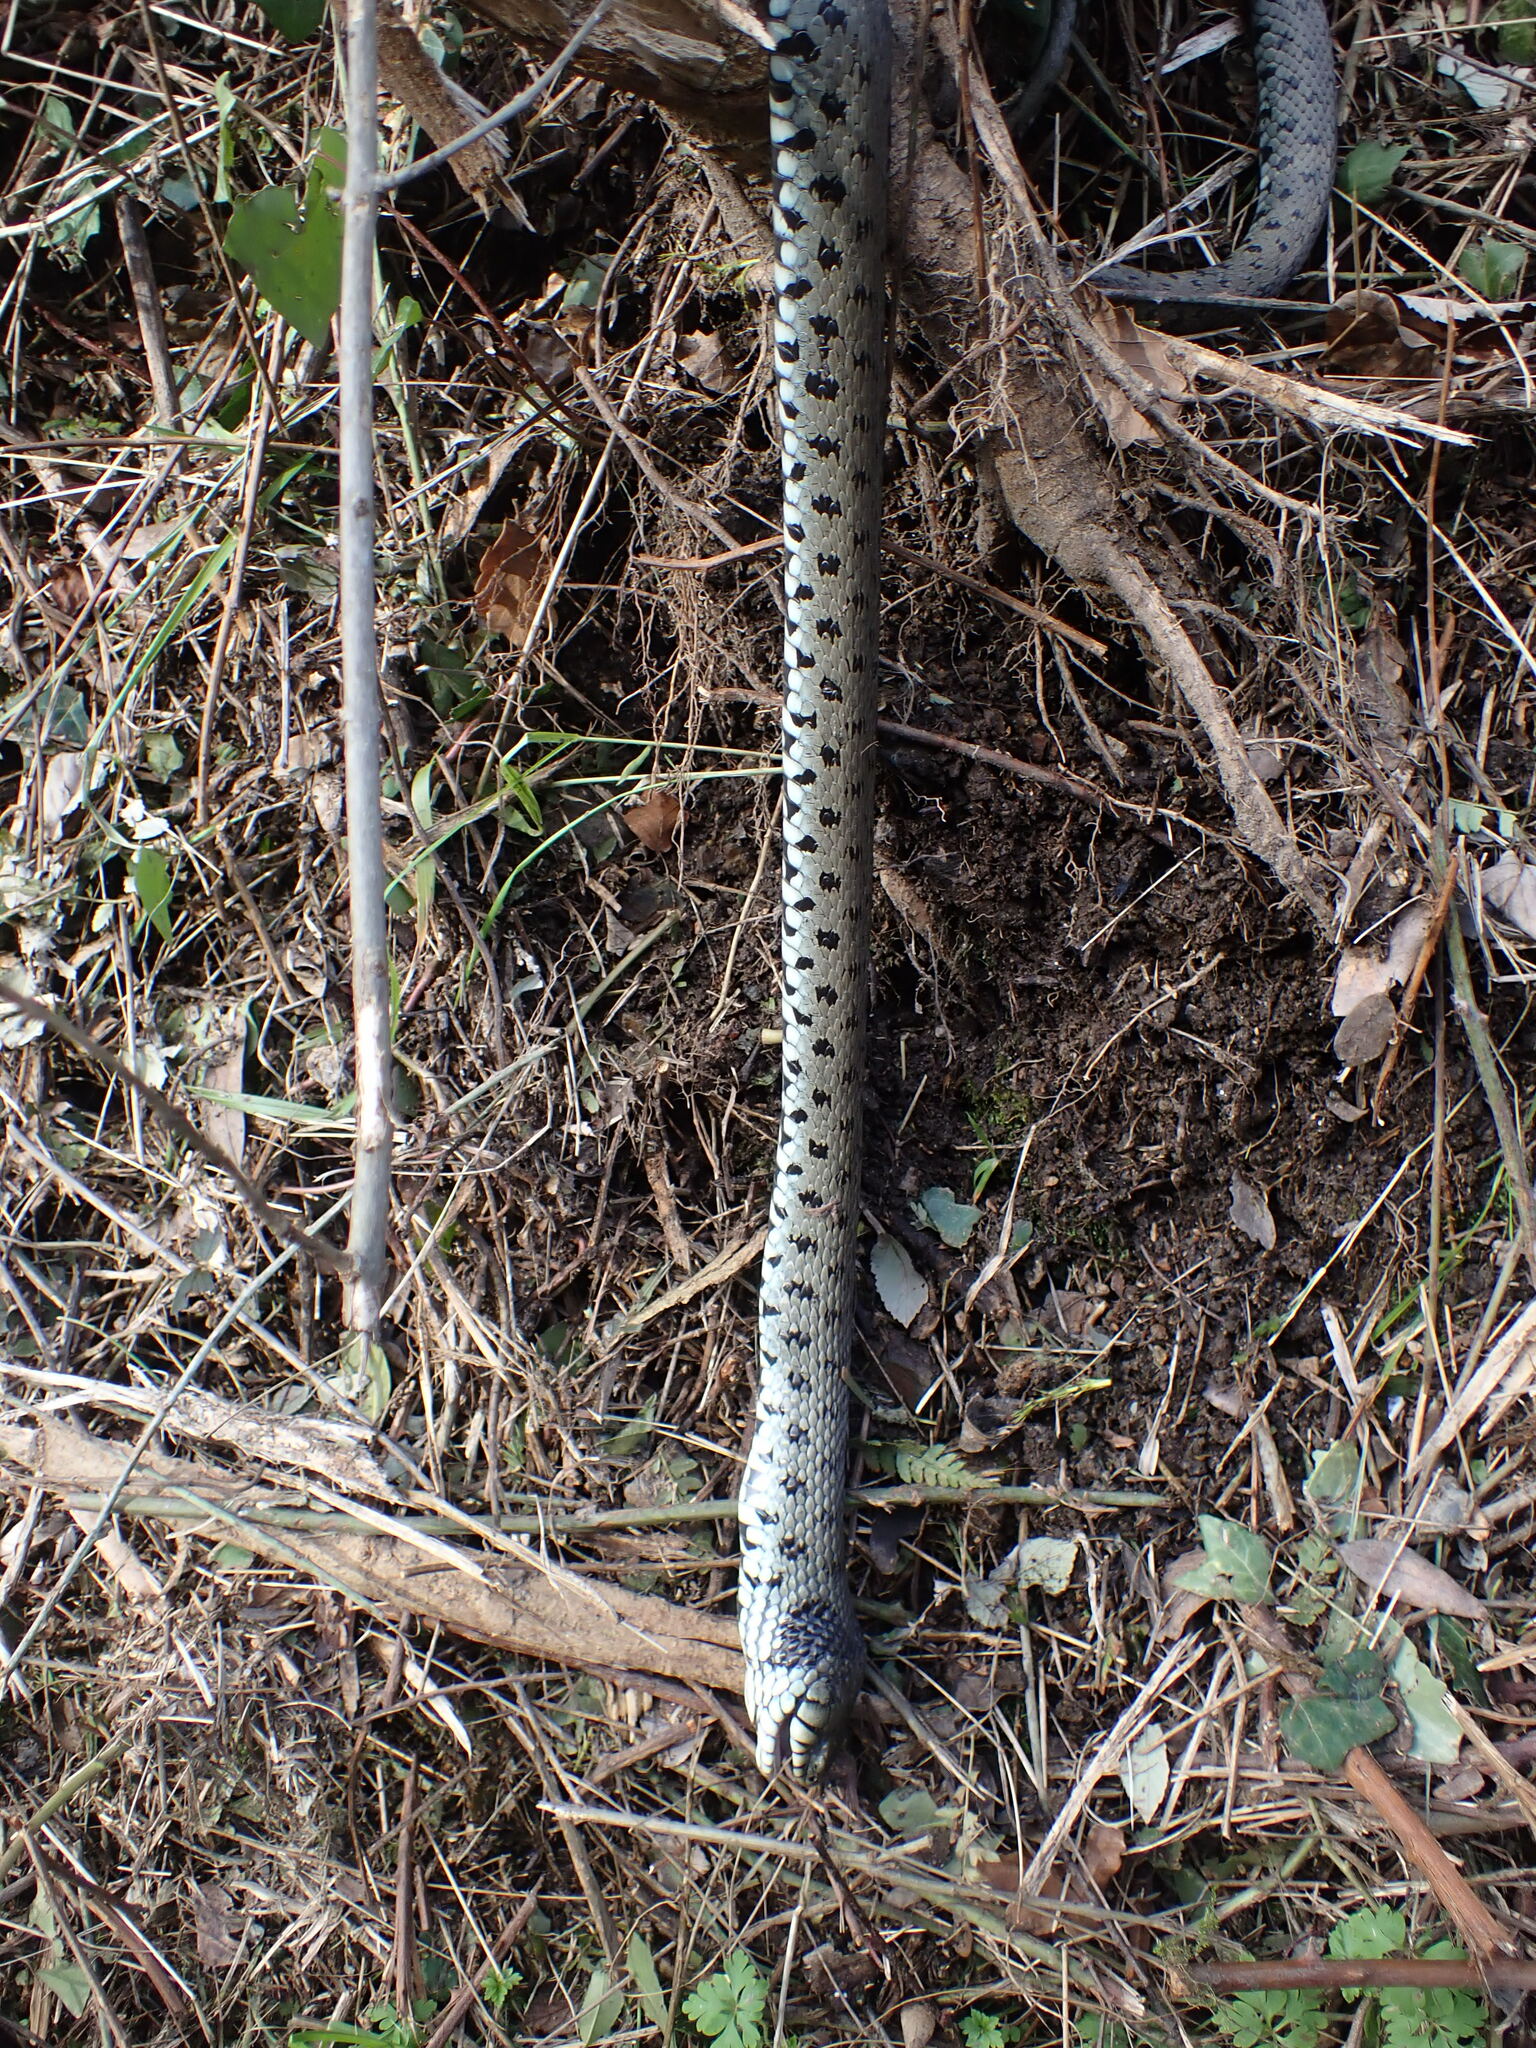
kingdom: Animalia
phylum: Chordata
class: Squamata
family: Colubridae
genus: Natrix
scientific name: Natrix helvetica
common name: Banded grass snake
